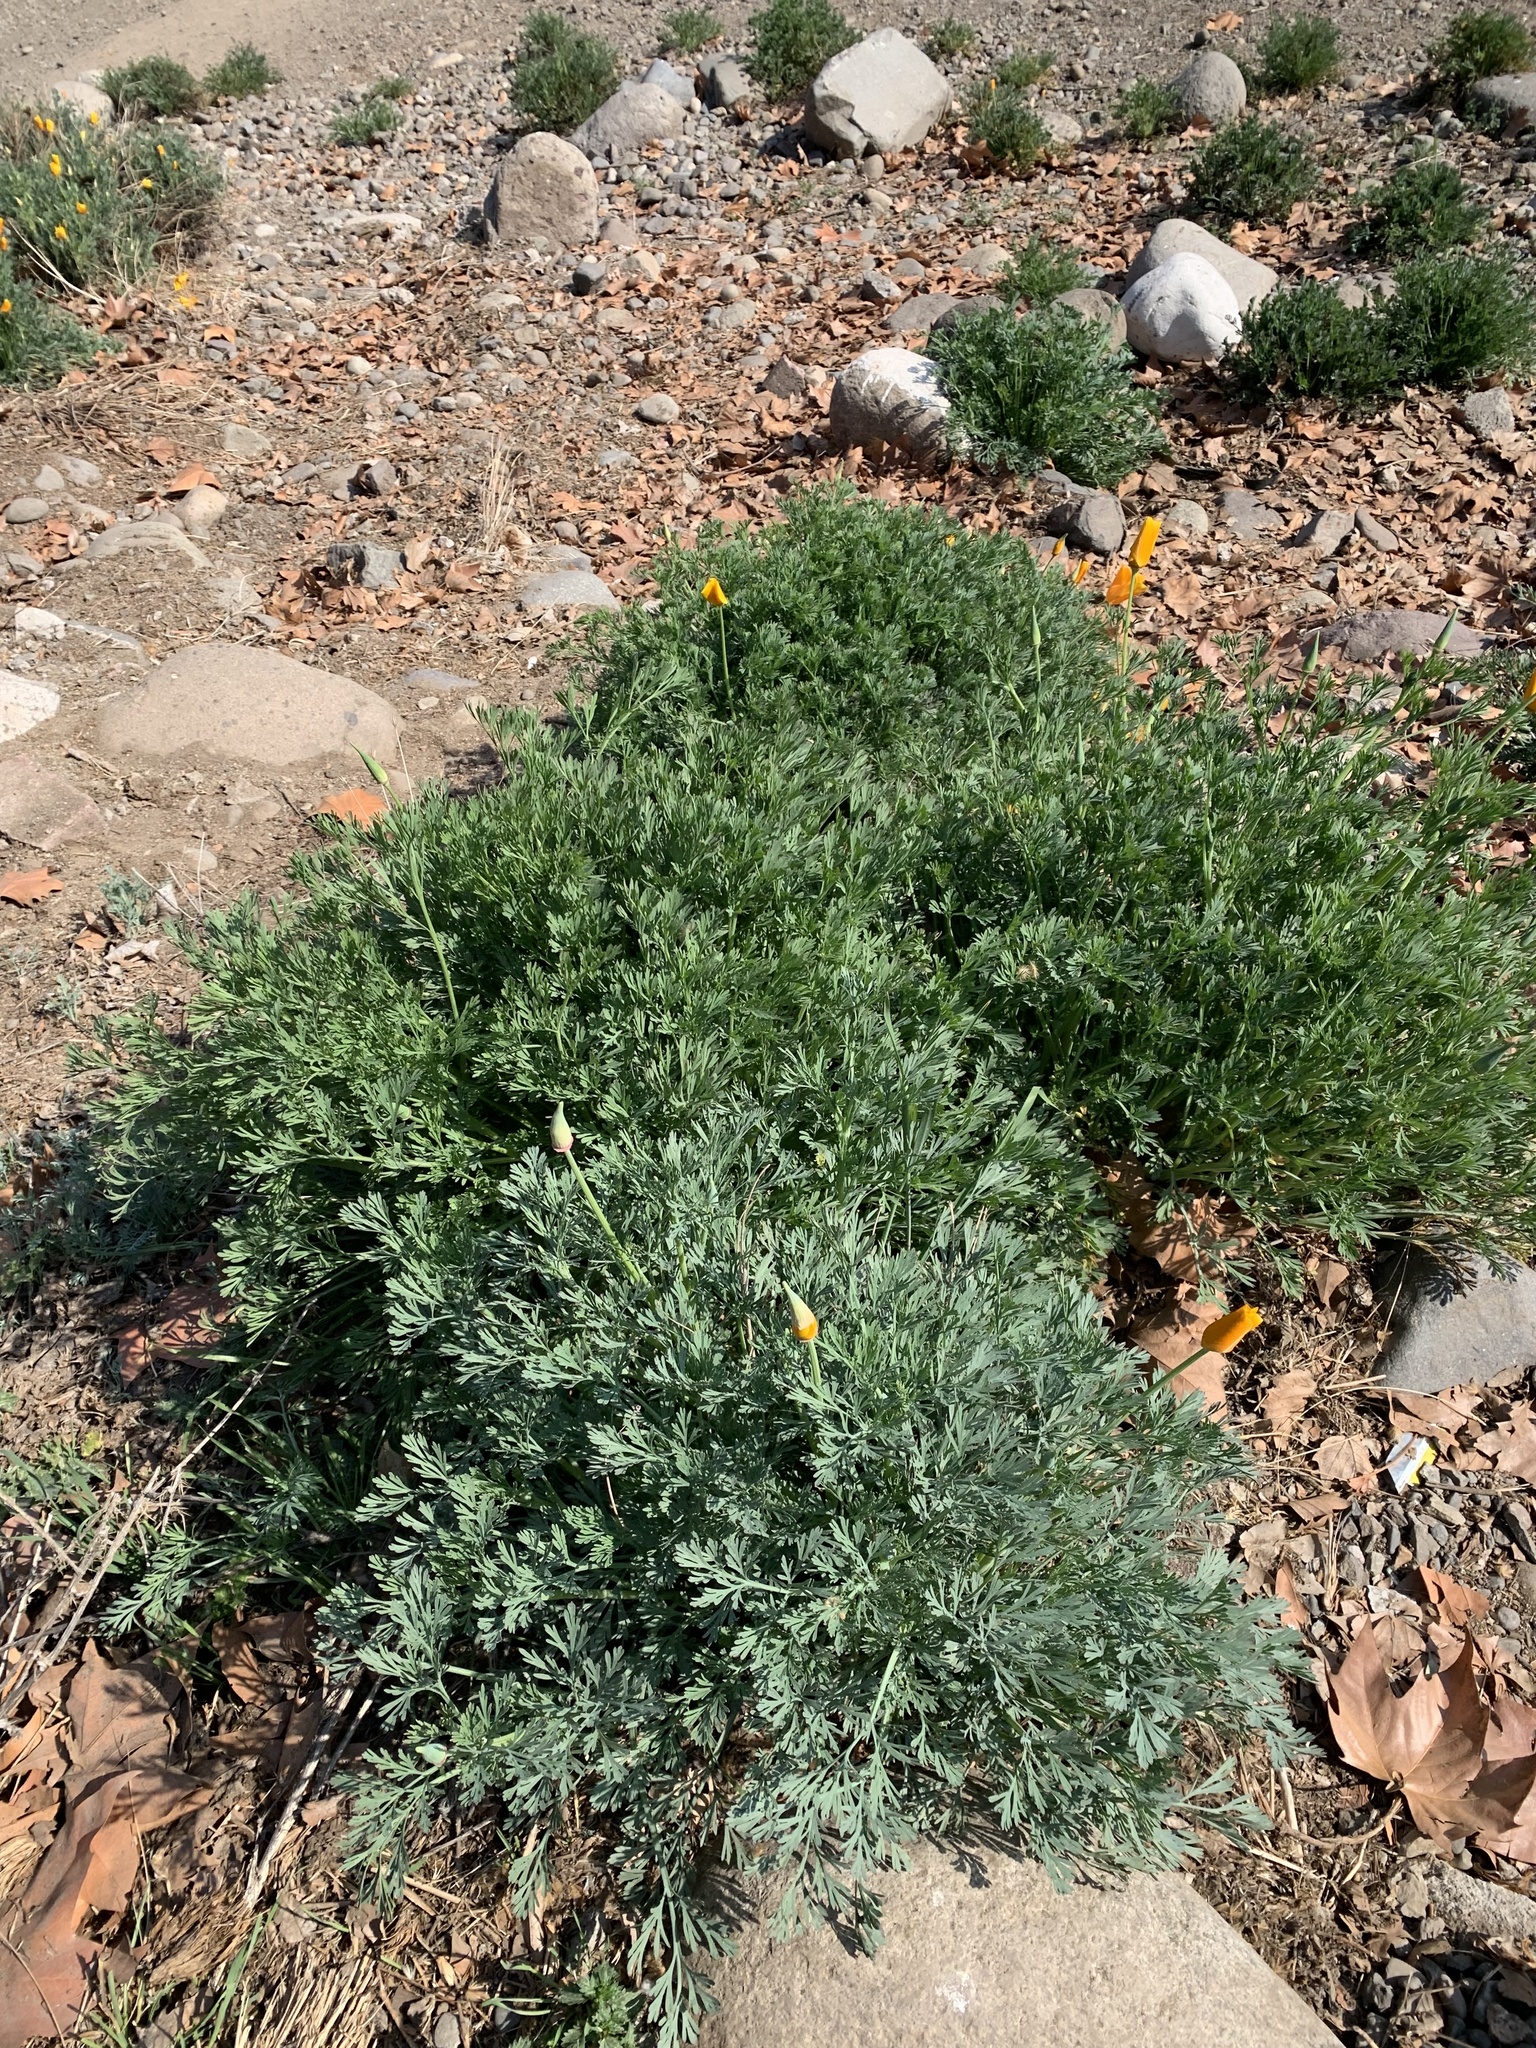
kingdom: Plantae
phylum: Tracheophyta
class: Magnoliopsida
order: Ranunculales
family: Papaveraceae
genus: Eschscholzia
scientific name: Eschscholzia californica
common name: California poppy
